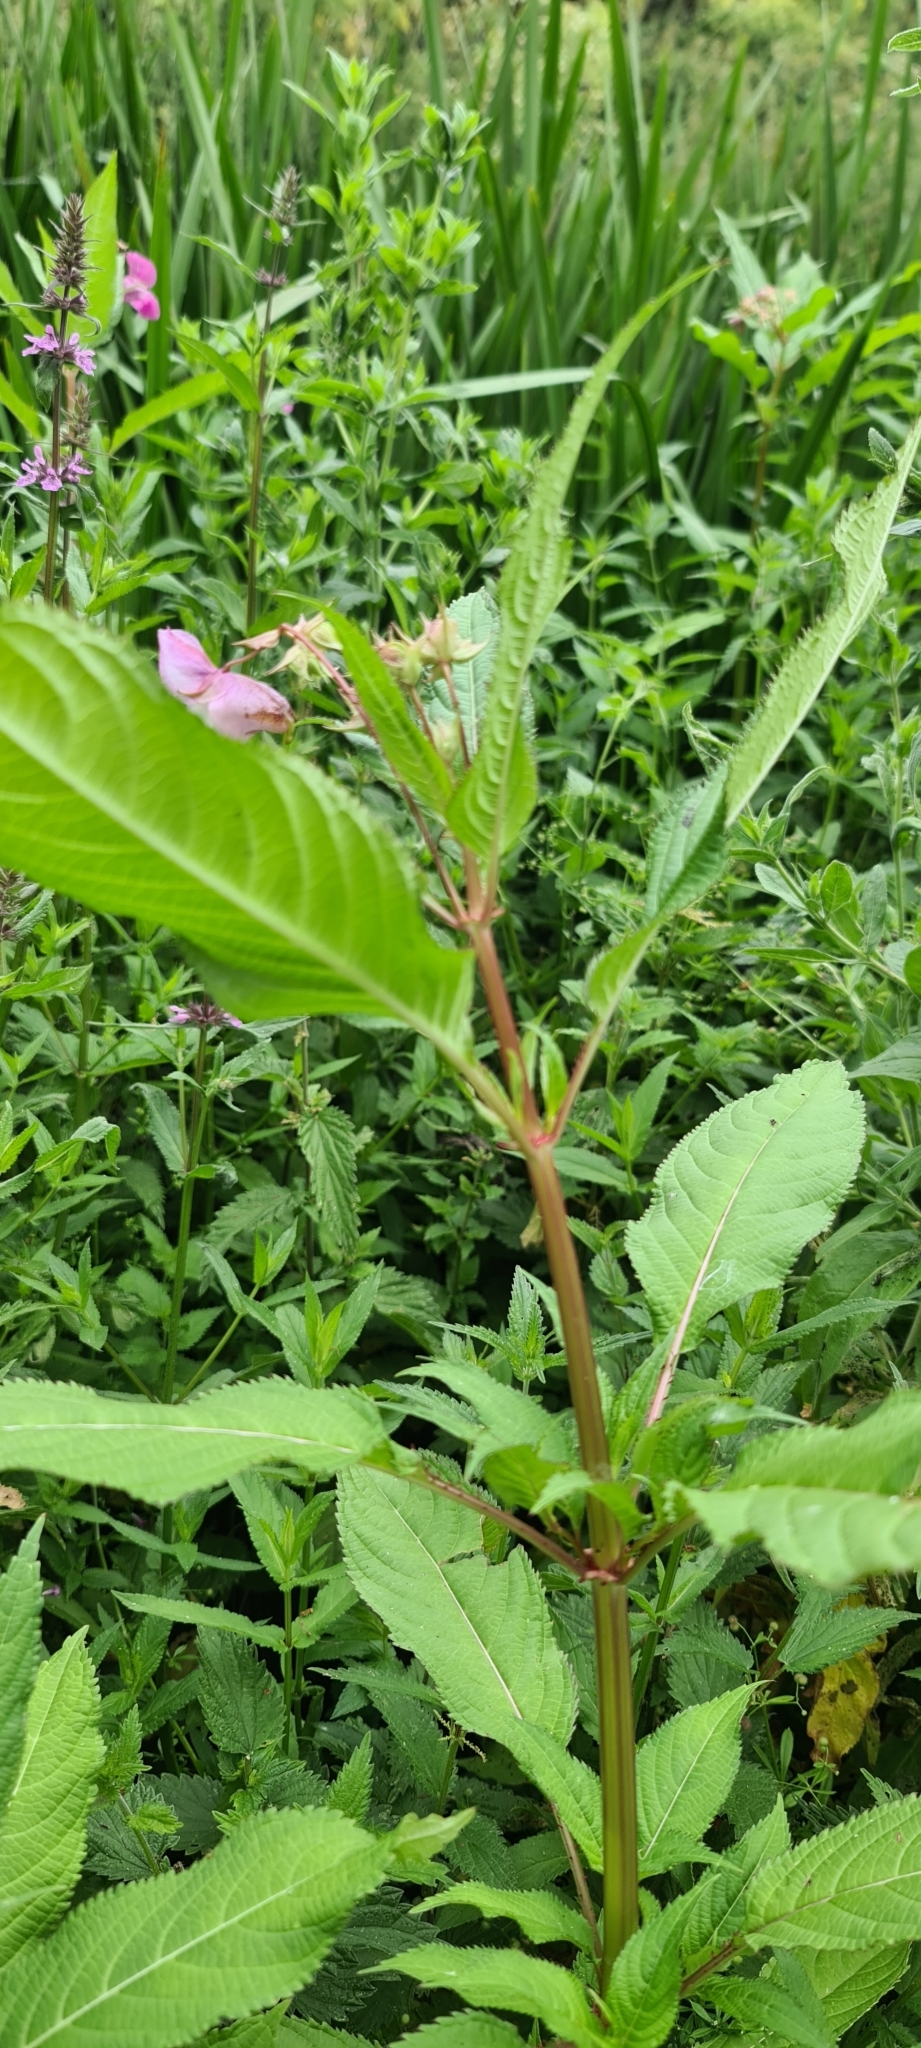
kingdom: Plantae
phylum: Tracheophyta
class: Magnoliopsida
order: Ericales
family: Balsaminaceae
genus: Impatiens
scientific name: Impatiens glandulifera
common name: Himalayan balsam
